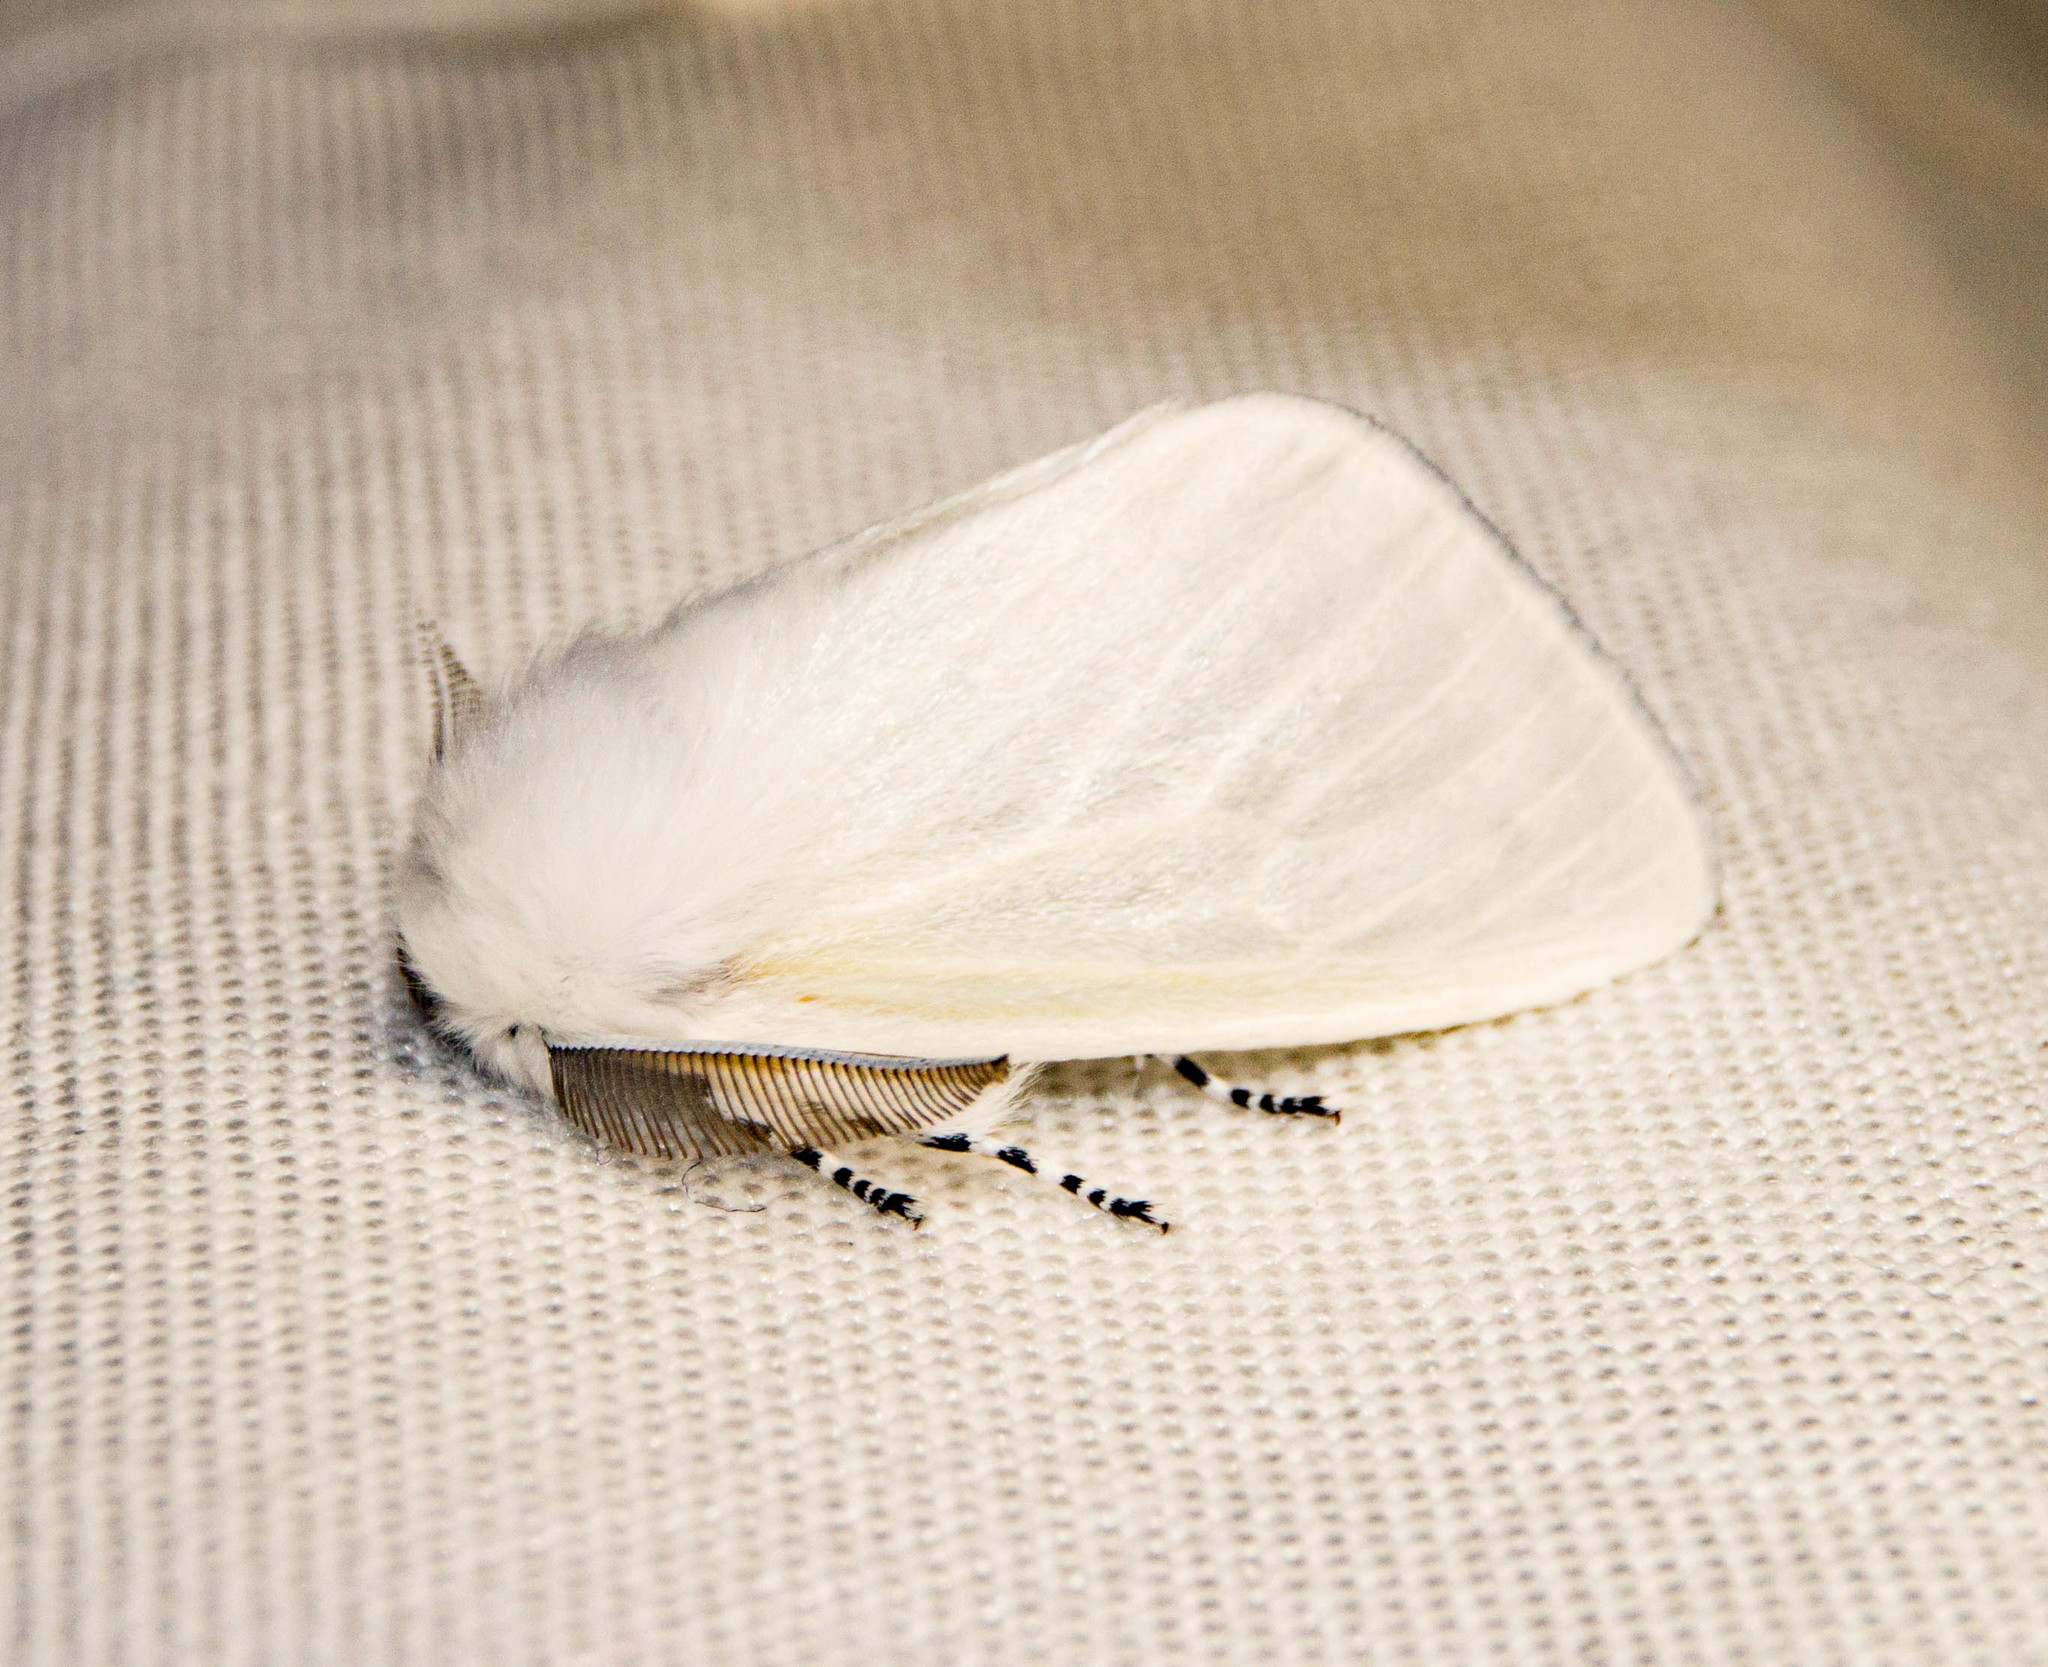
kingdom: Animalia
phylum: Arthropoda
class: Insecta
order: Lepidoptera
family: Erebidae
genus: Leucoma
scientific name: Leucoma salicis
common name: White satin moth
